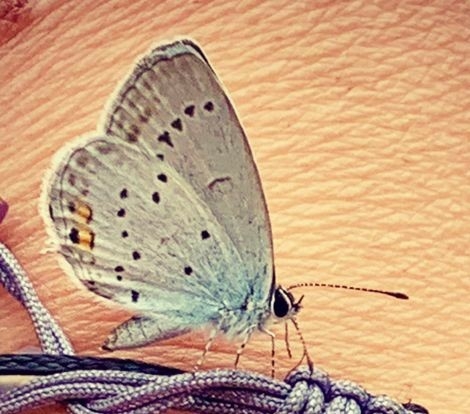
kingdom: Animalia
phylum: Arthropoda
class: Insecta
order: Lepidoptera
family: Lycaenidae
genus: Elkalyce
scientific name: Elkalyce argiades
